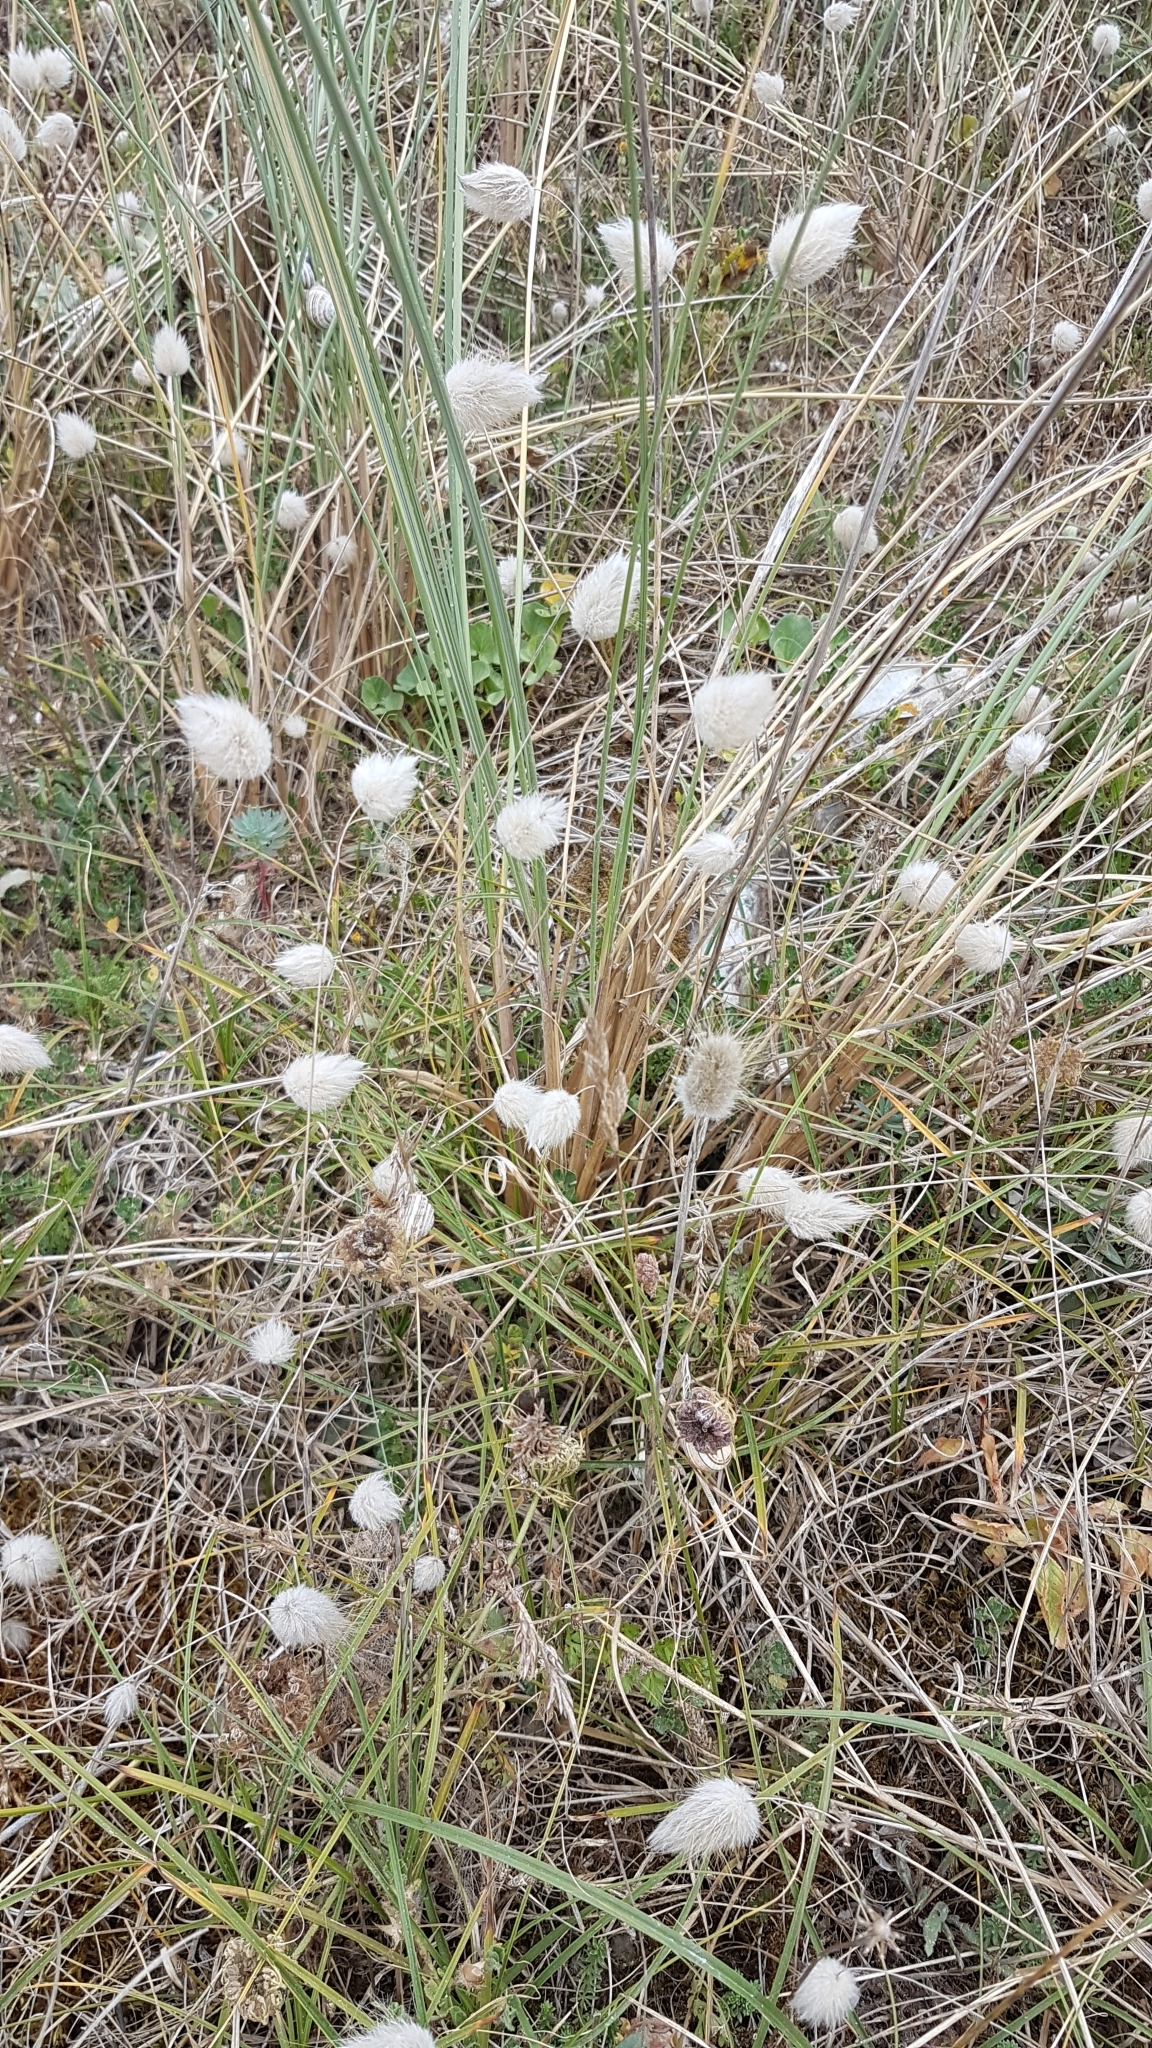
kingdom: Plantae
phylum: Tracheophyta
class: Liliopsida
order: Poales
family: Poaceae
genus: Lagurus
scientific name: Lagurus ovatus
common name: Hare's-tail
